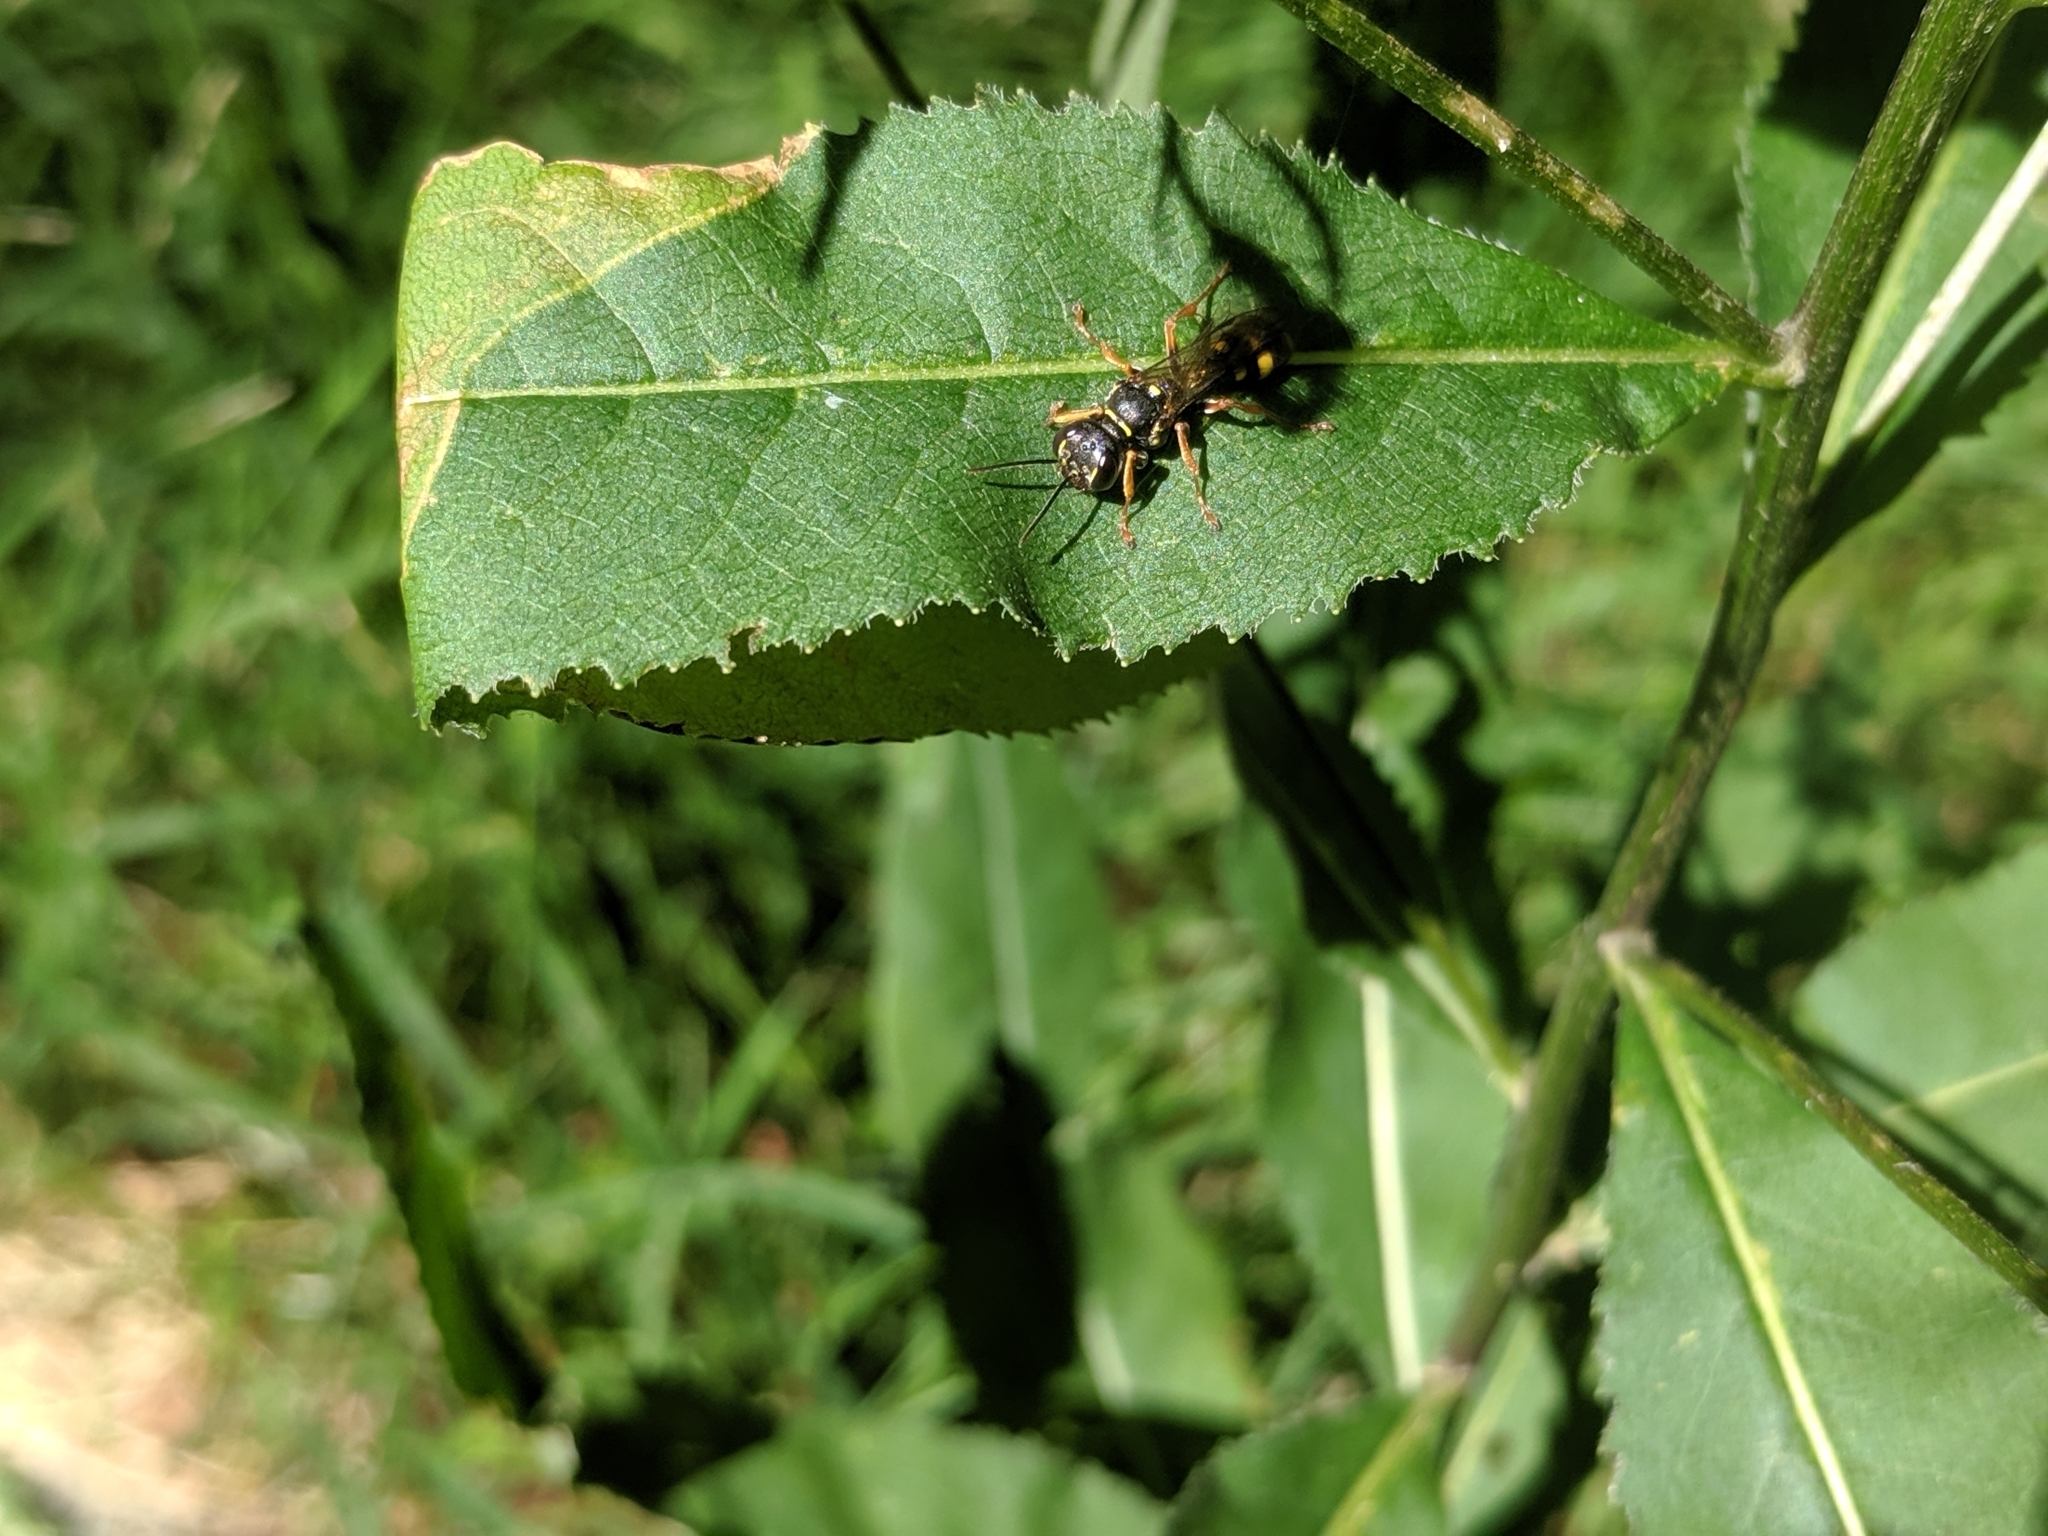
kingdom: Animalia
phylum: Arthropoda
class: Insecta
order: Hymenoptera
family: Crabronidae
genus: Mellinus
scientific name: Mellinus arvensis
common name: Field digger wasp
